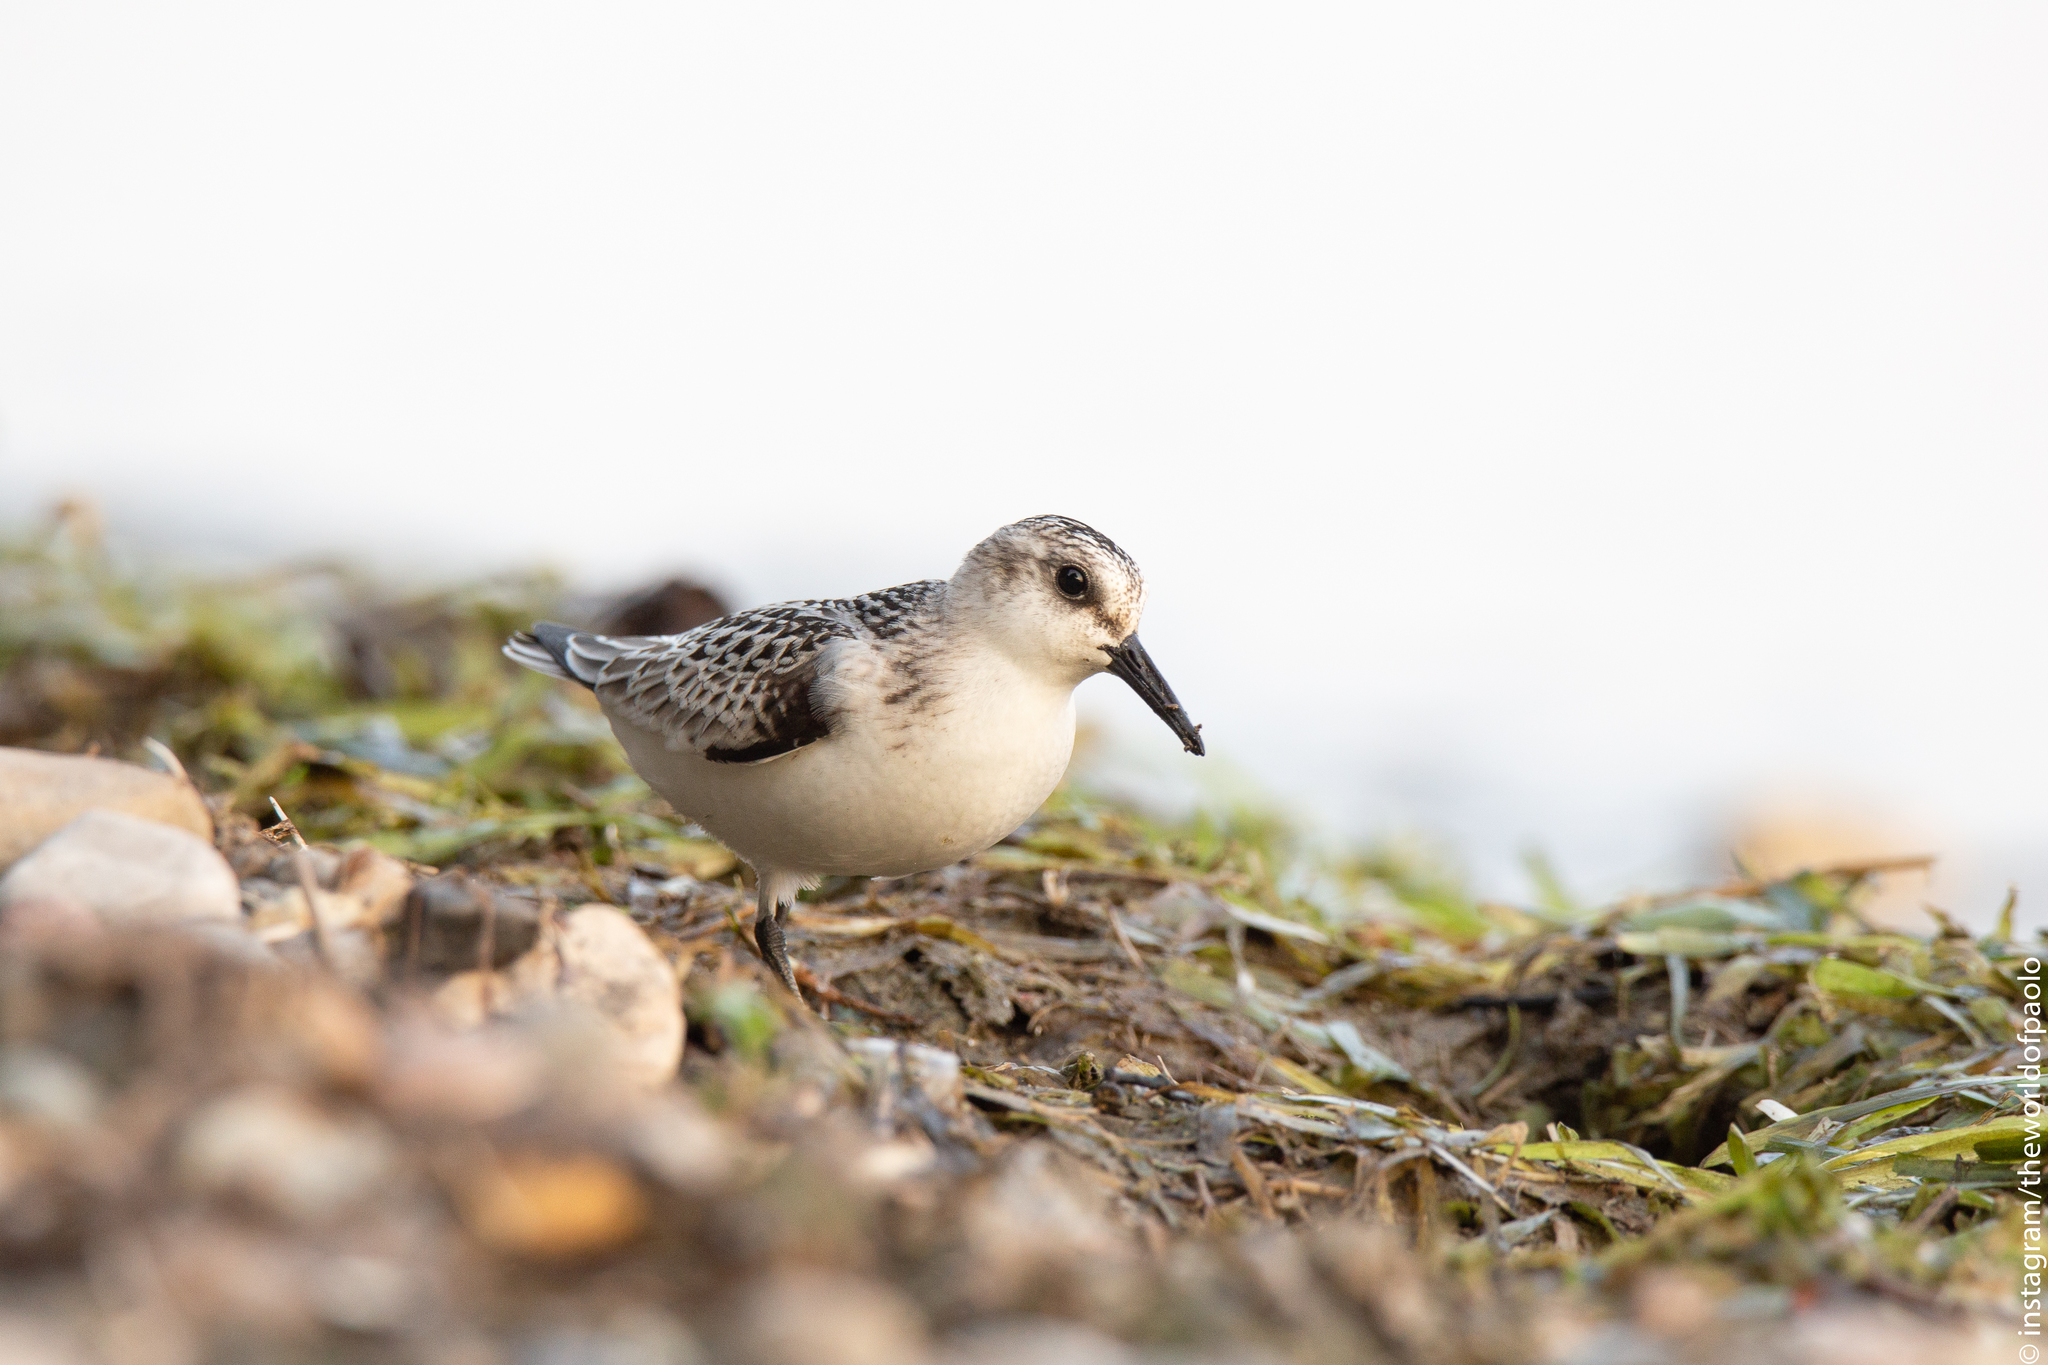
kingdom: Animalia
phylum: Chordata
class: Aves
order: Charadriiformes
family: Scolopacidae
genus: Calidris
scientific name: Calidris alba
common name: Sanderling
